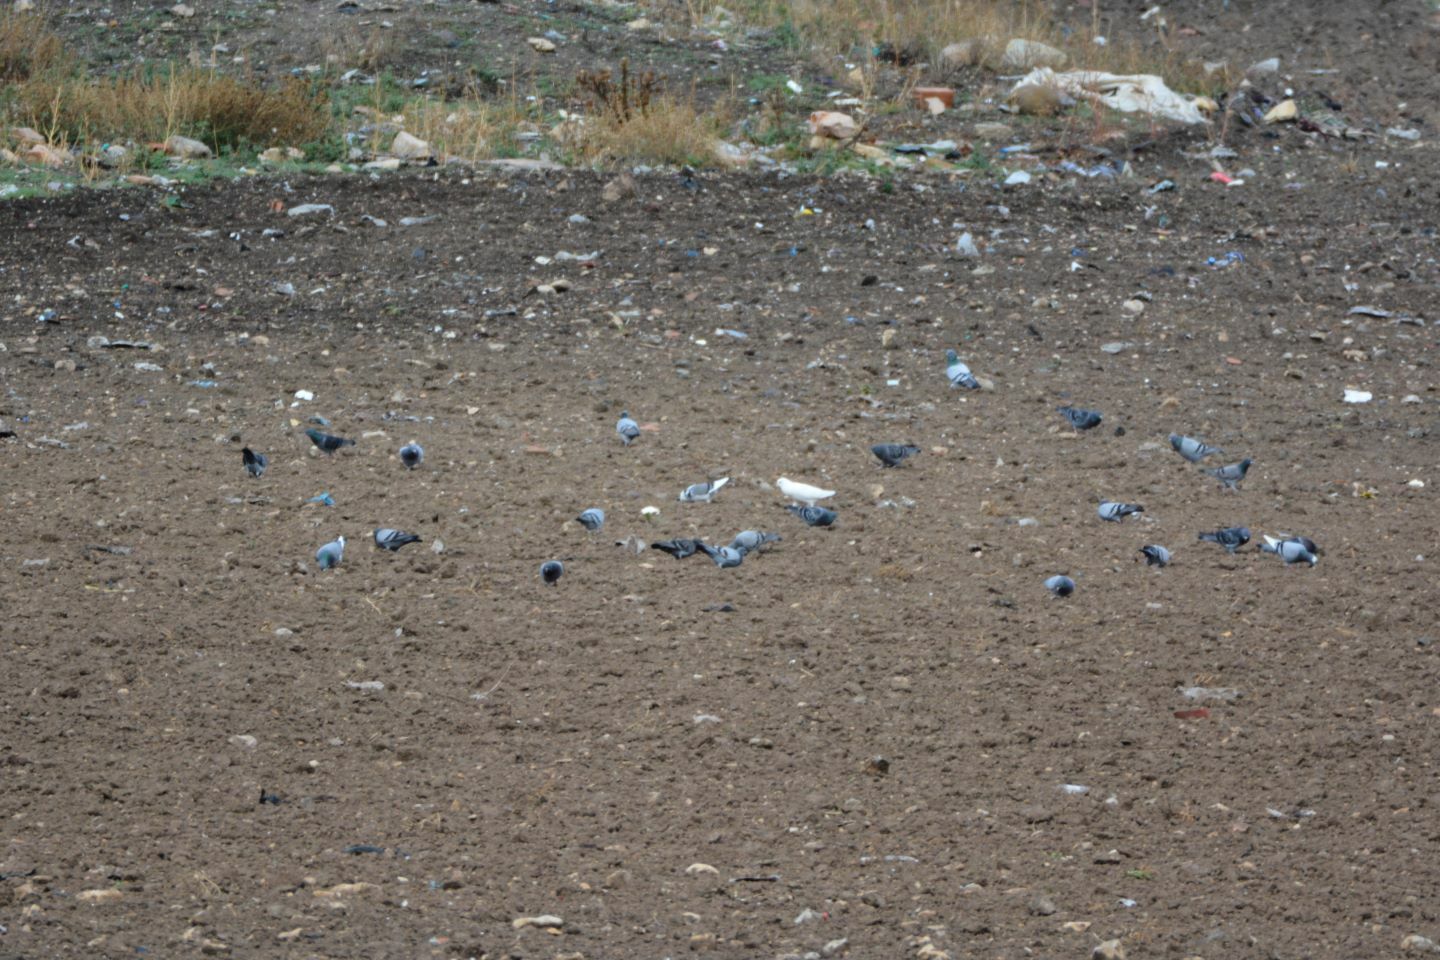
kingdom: Animalia
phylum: Chordata
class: Aves
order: Columbiformes
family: Columbidae
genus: Columba
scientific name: Columba livia
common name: Rock pigeon
